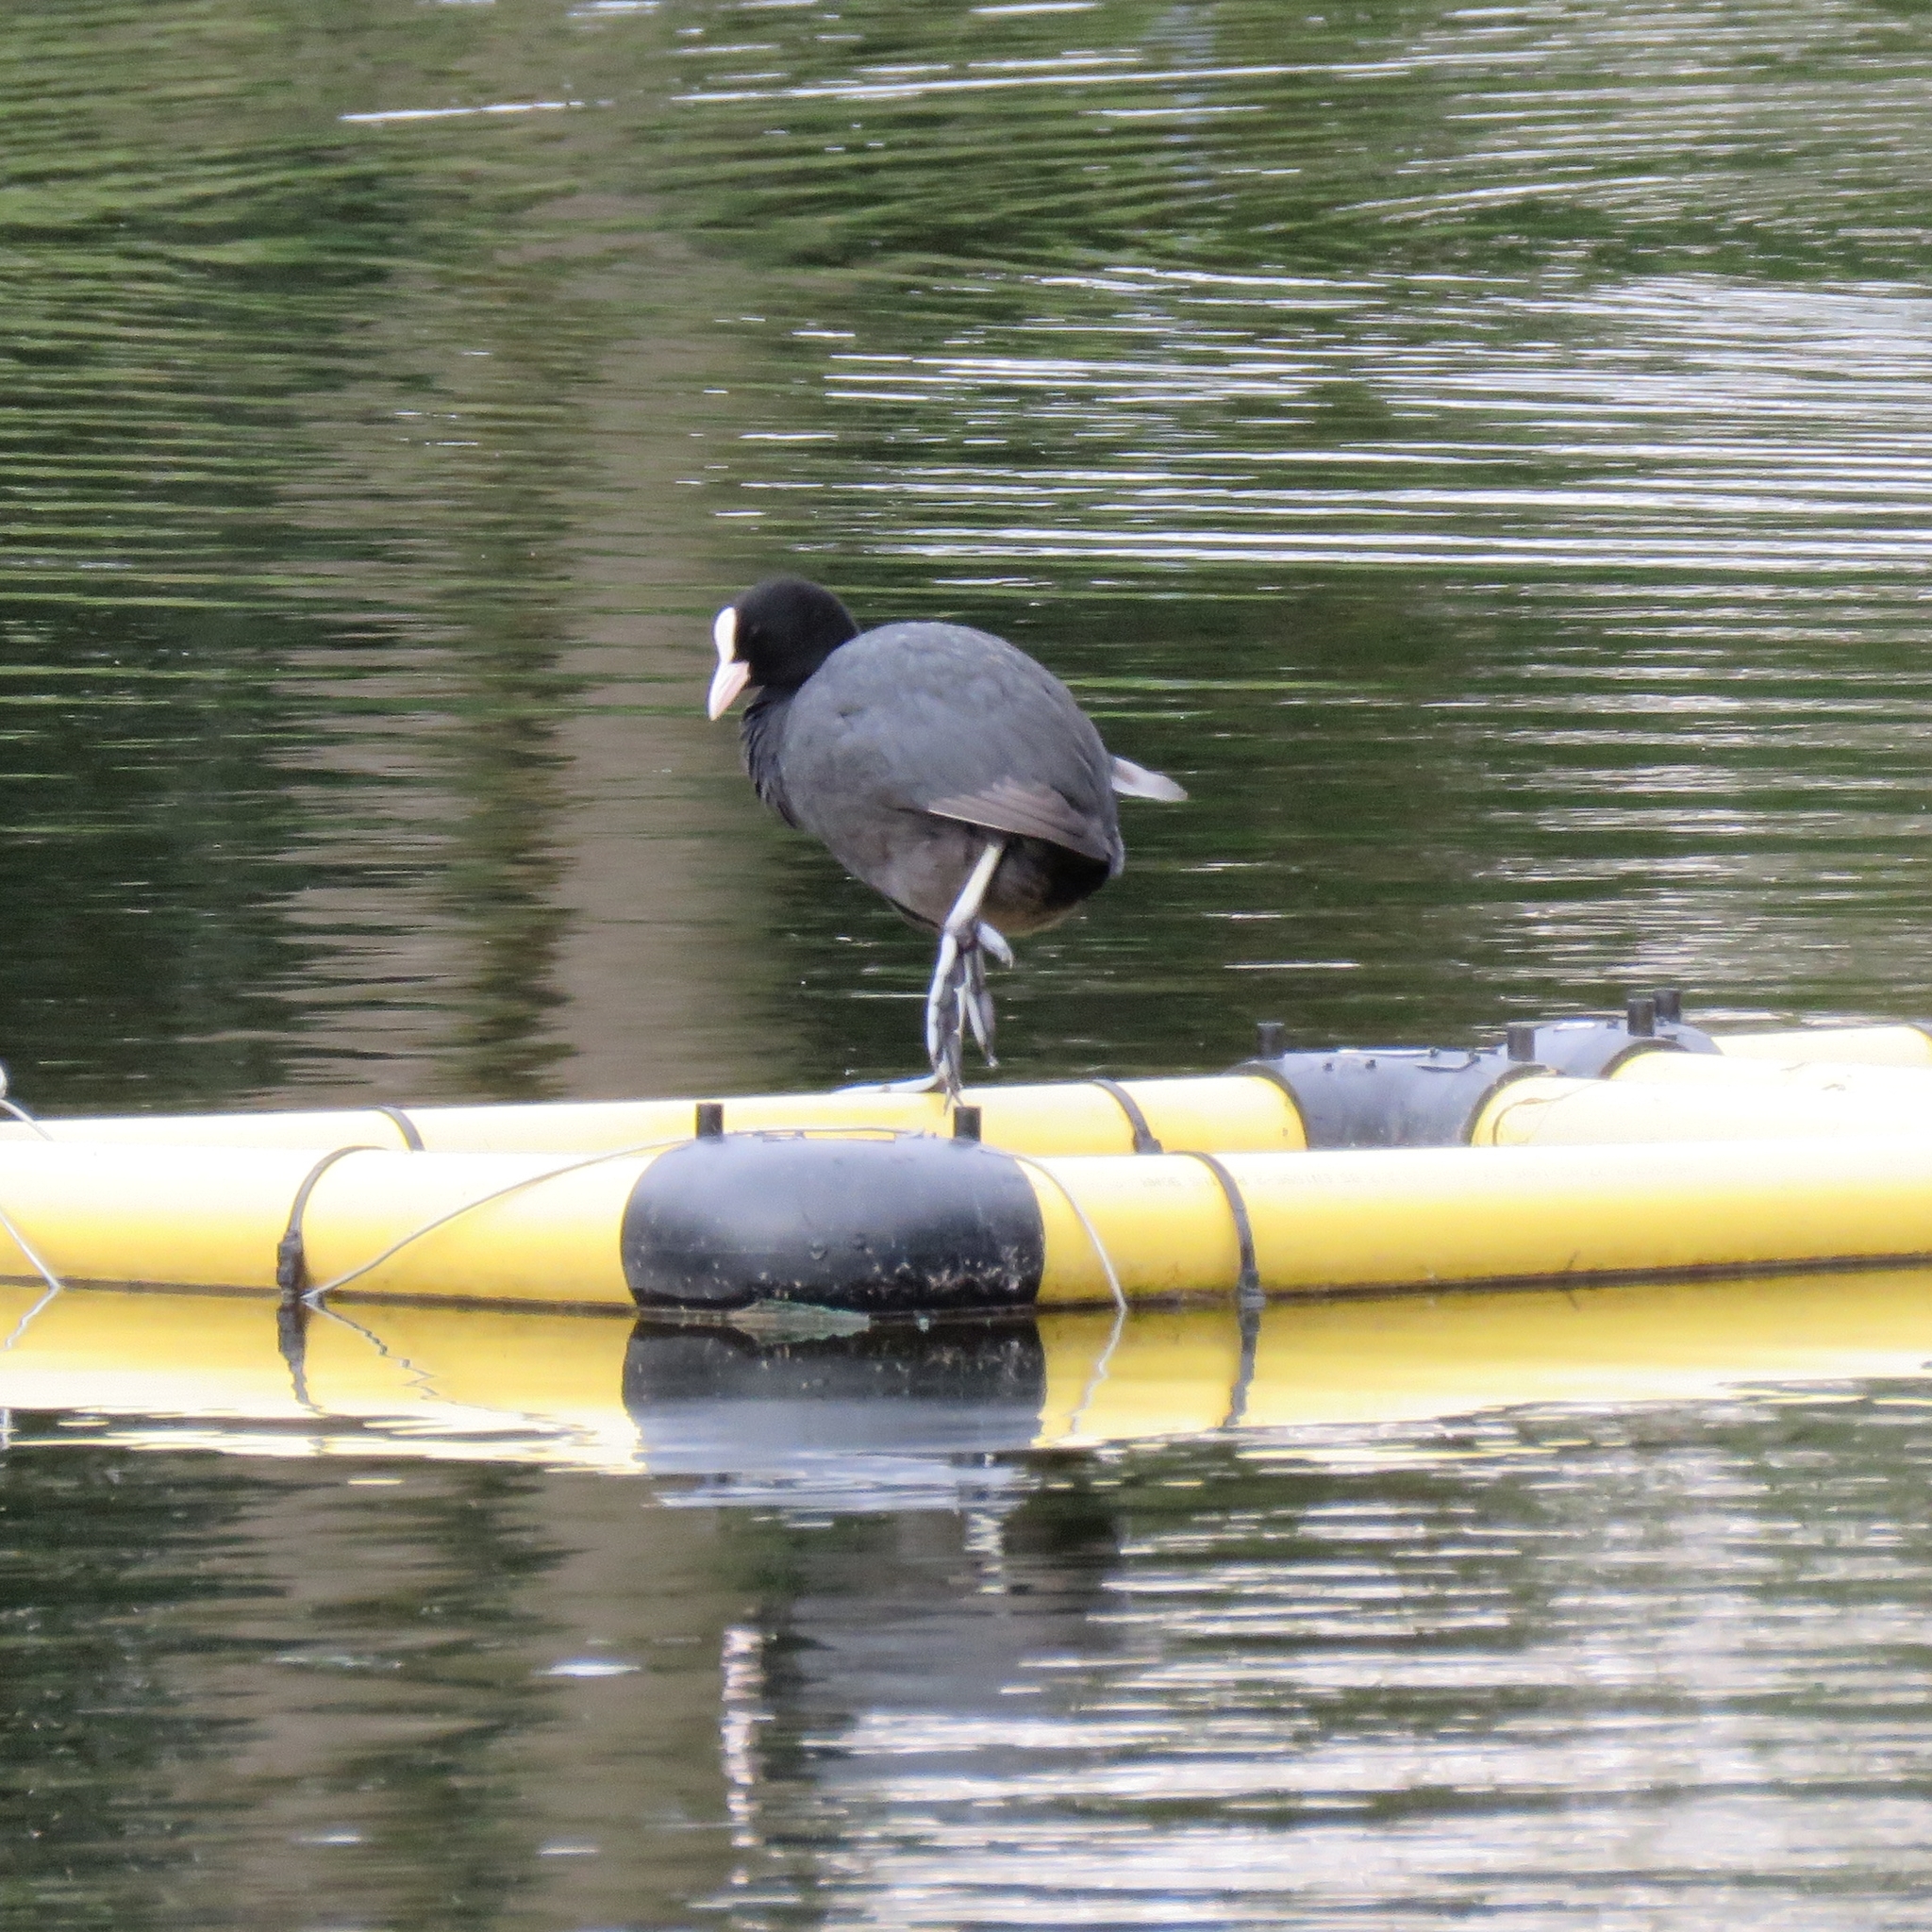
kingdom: Animalia
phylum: Chordata
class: Aves
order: Gruiformes
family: Rallidae
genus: Fulica
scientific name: Fulica atra
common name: Eurasian coot
